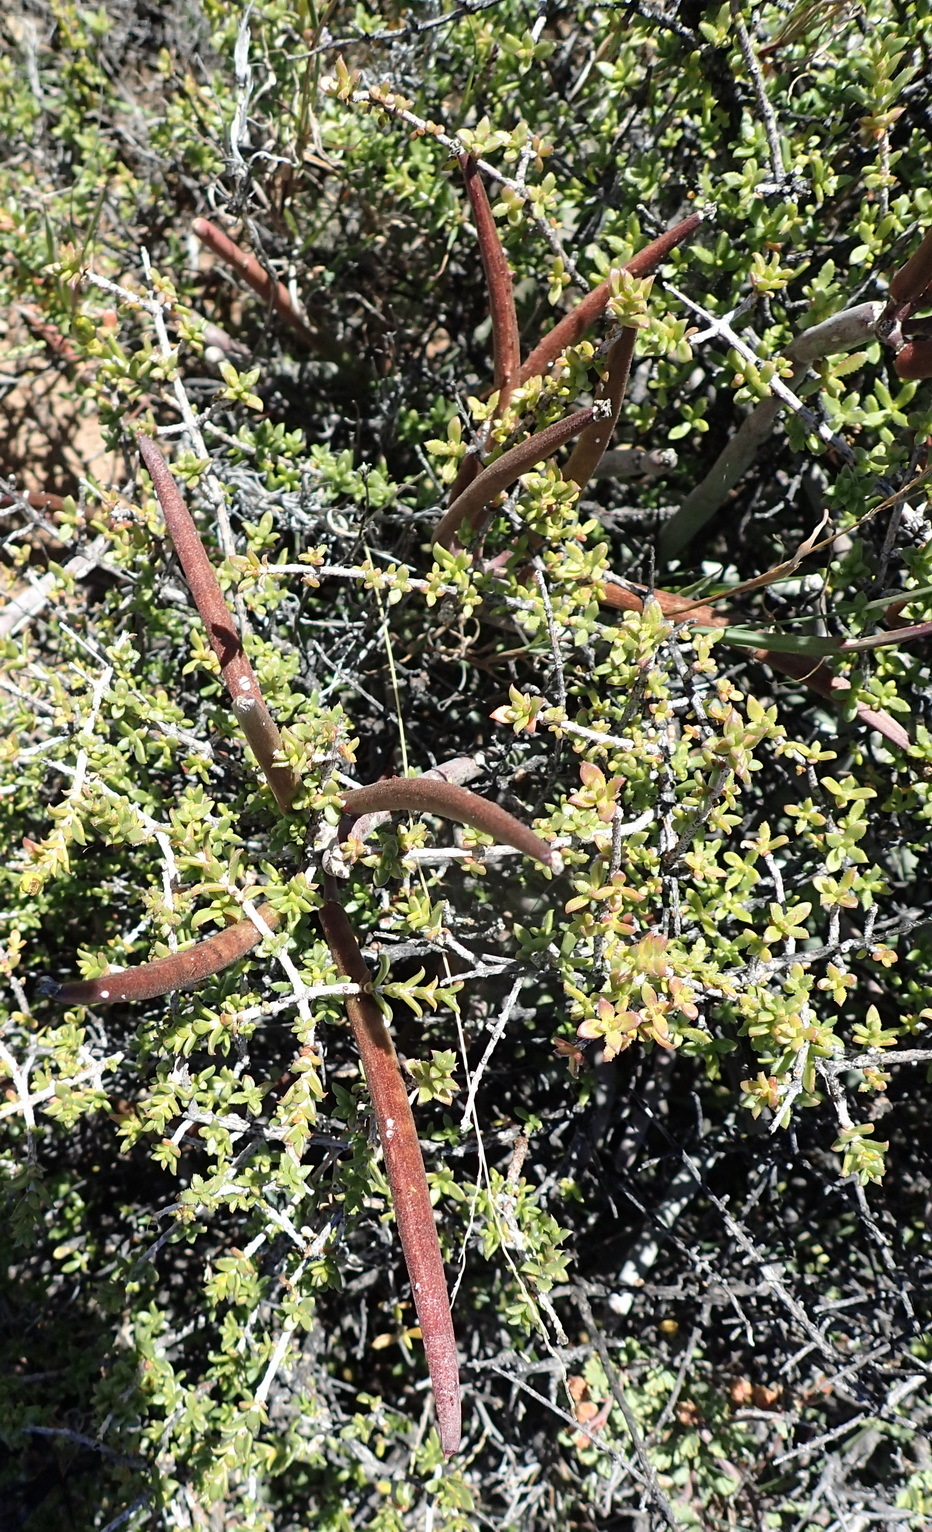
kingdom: Plantae
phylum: Tracheophyta
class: Magnoliopsida
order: Gentianales
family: Apocynaceae
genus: Cynanchum
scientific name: Cynanchum viminale
